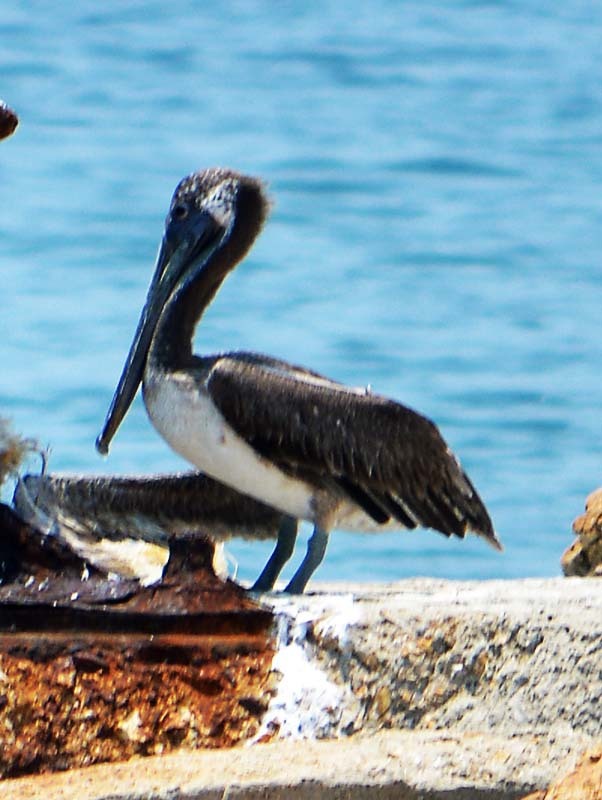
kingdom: Animalia
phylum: Chordata
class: Aves
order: Pelecaniformes
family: Pelecanidae
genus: Pelecanus
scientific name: Pelecanus occidentalis
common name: Brown pelican
